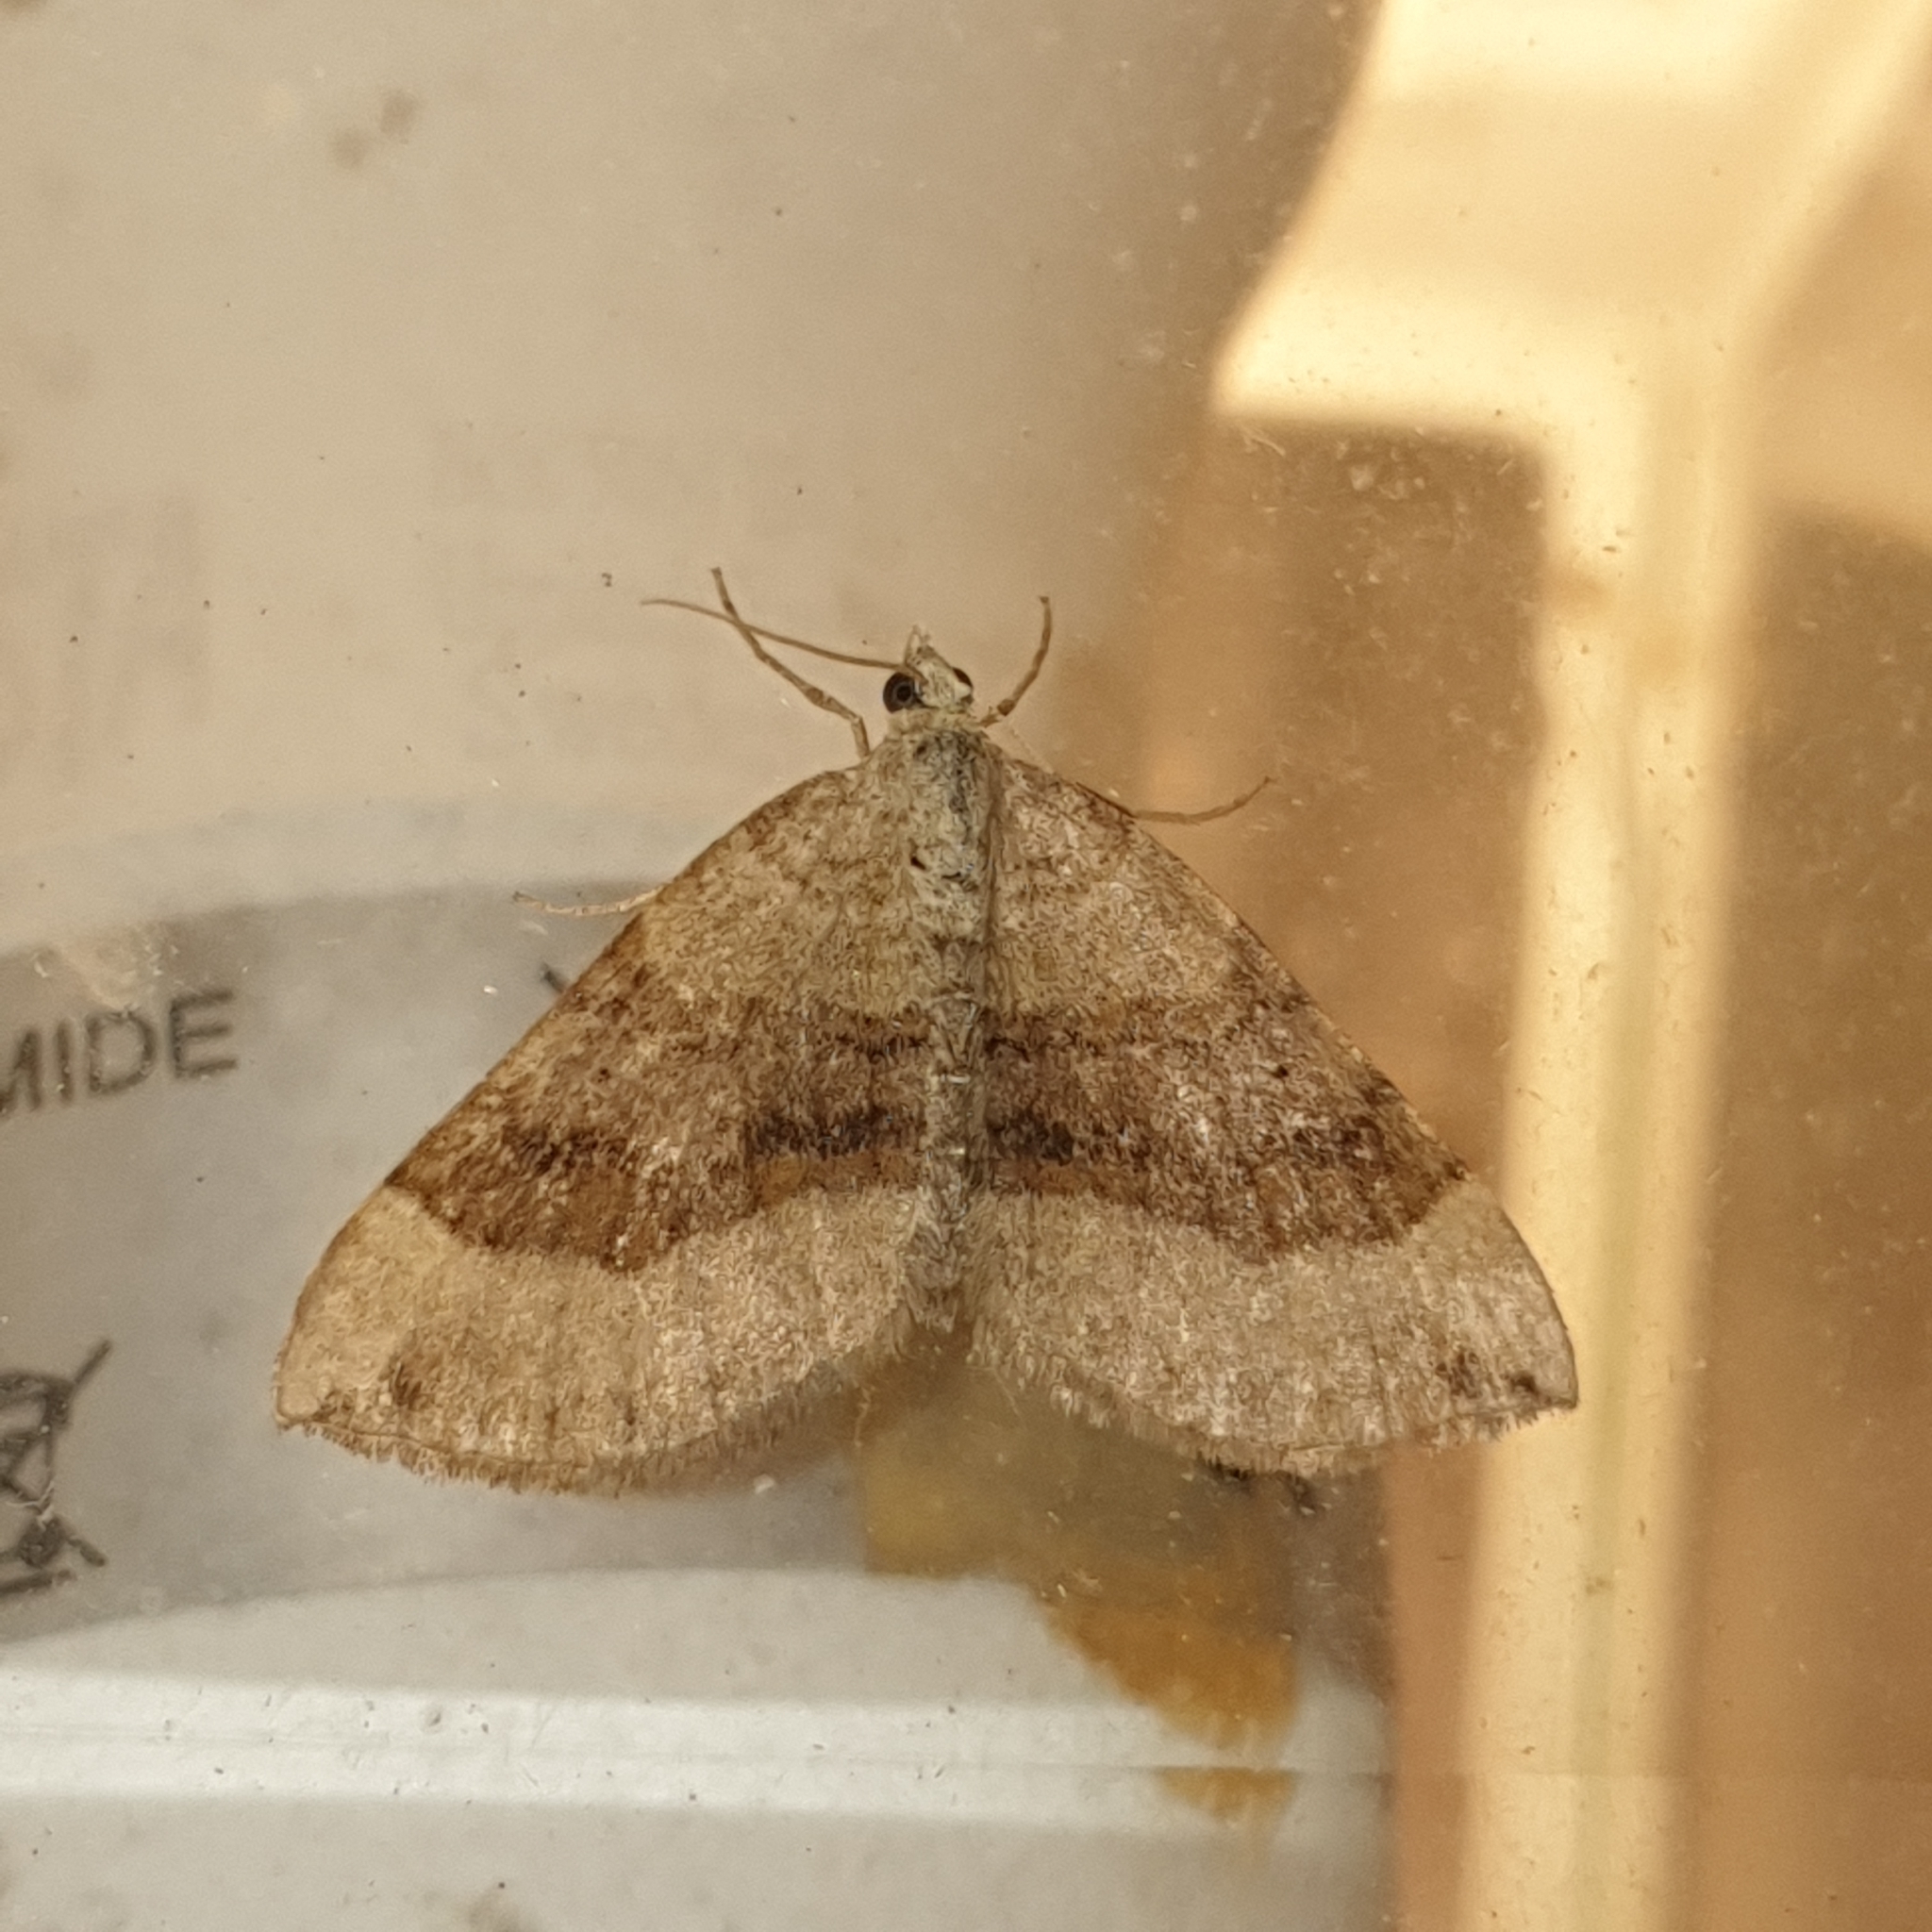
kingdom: Animalia
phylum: Arthropoda
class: Insecta
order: Lepidoptera
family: Geometridae
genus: Scotopteryx
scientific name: Scotopteryx chenopodiata
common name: Shaded broad-bar
